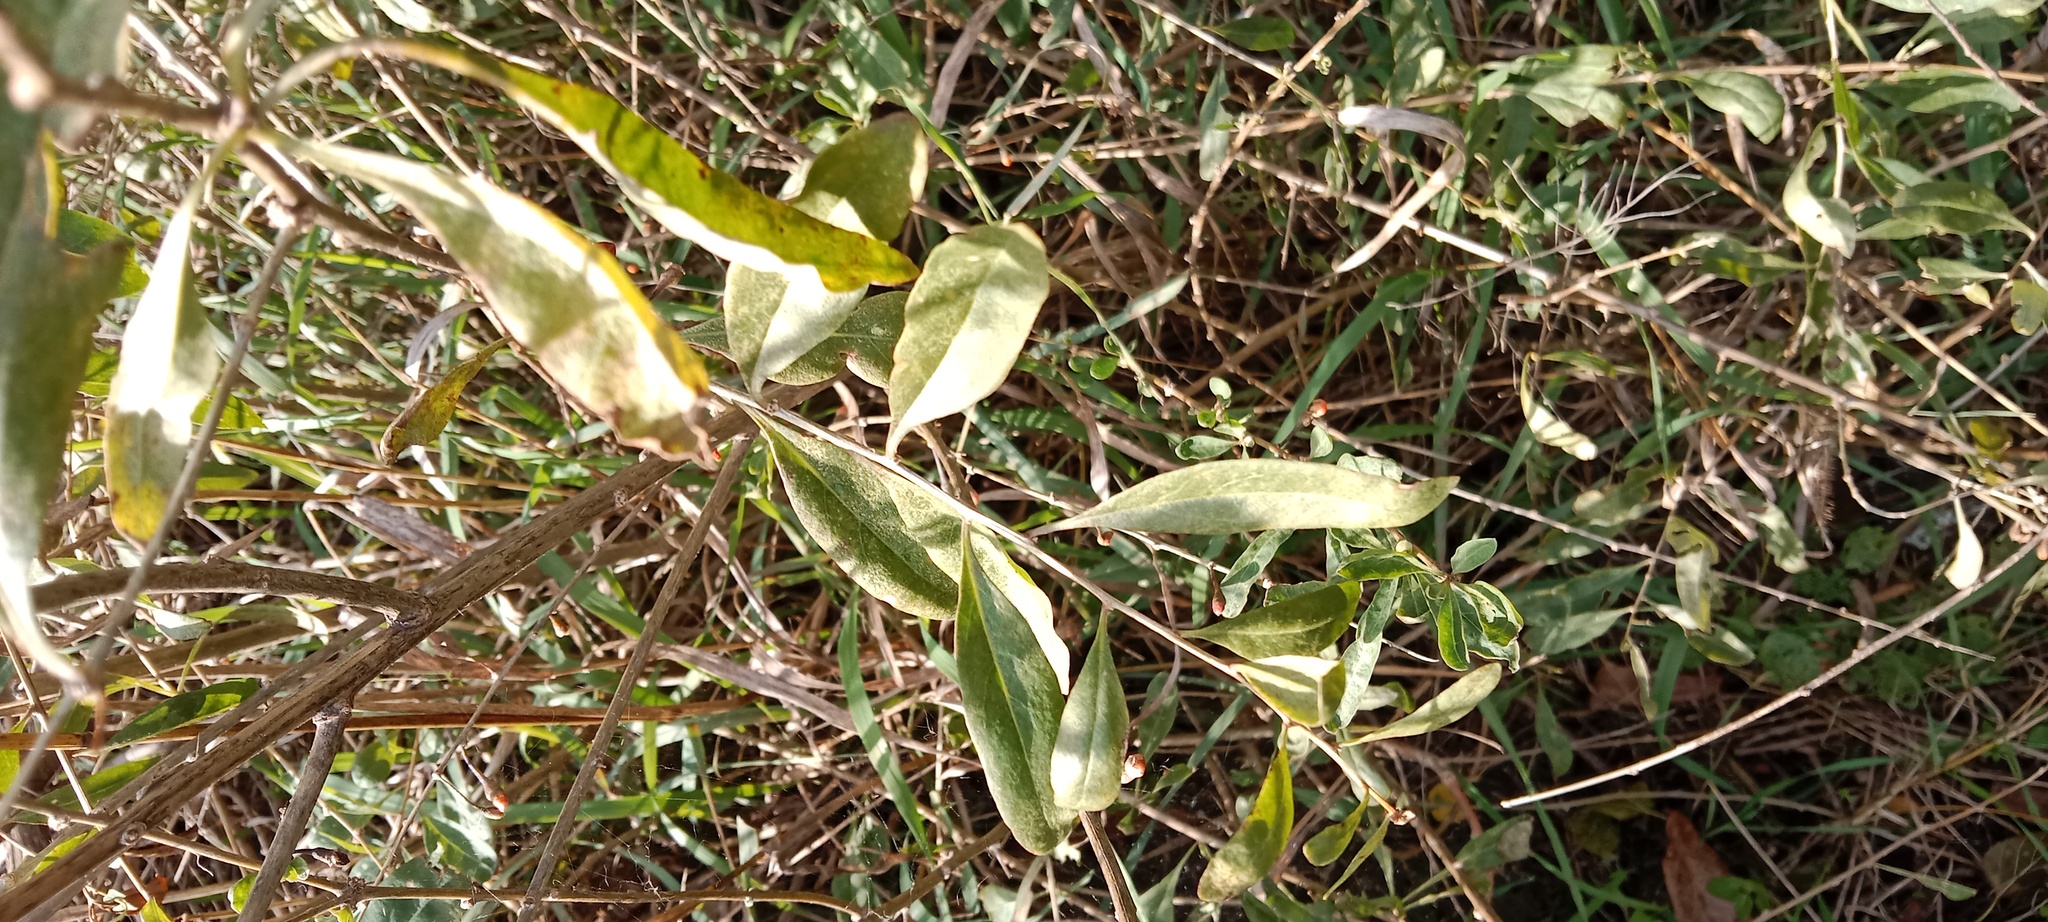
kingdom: Plantae
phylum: Tracheophyta
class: Magnoliopsida
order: Solanales
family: Solanaceae
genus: Lycium
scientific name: Lycium barbarum
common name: Duke of argyll's teaplant
